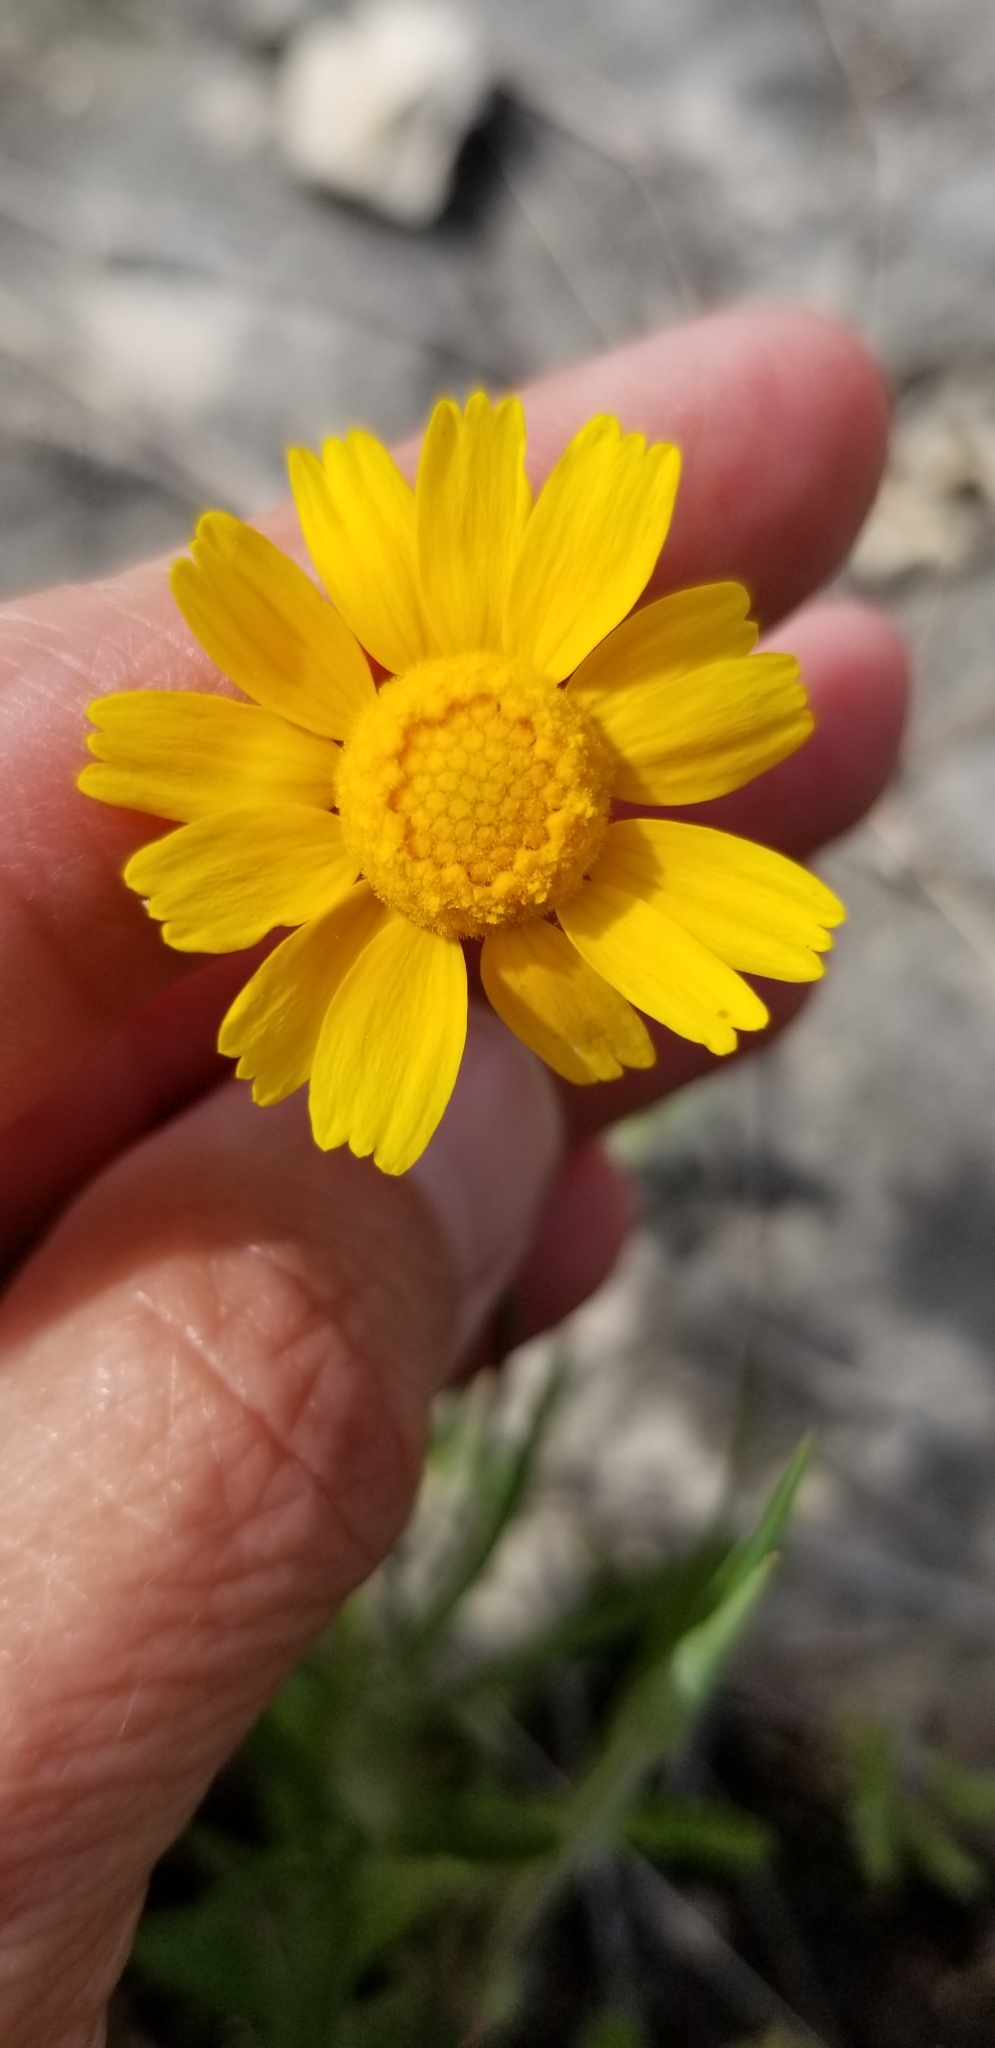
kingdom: Plantae
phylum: Tracheophyta
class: Magnoliopsida
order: Asterales
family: Asteraceae
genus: Tetraneuris
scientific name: Tetraneuris linearifolia
